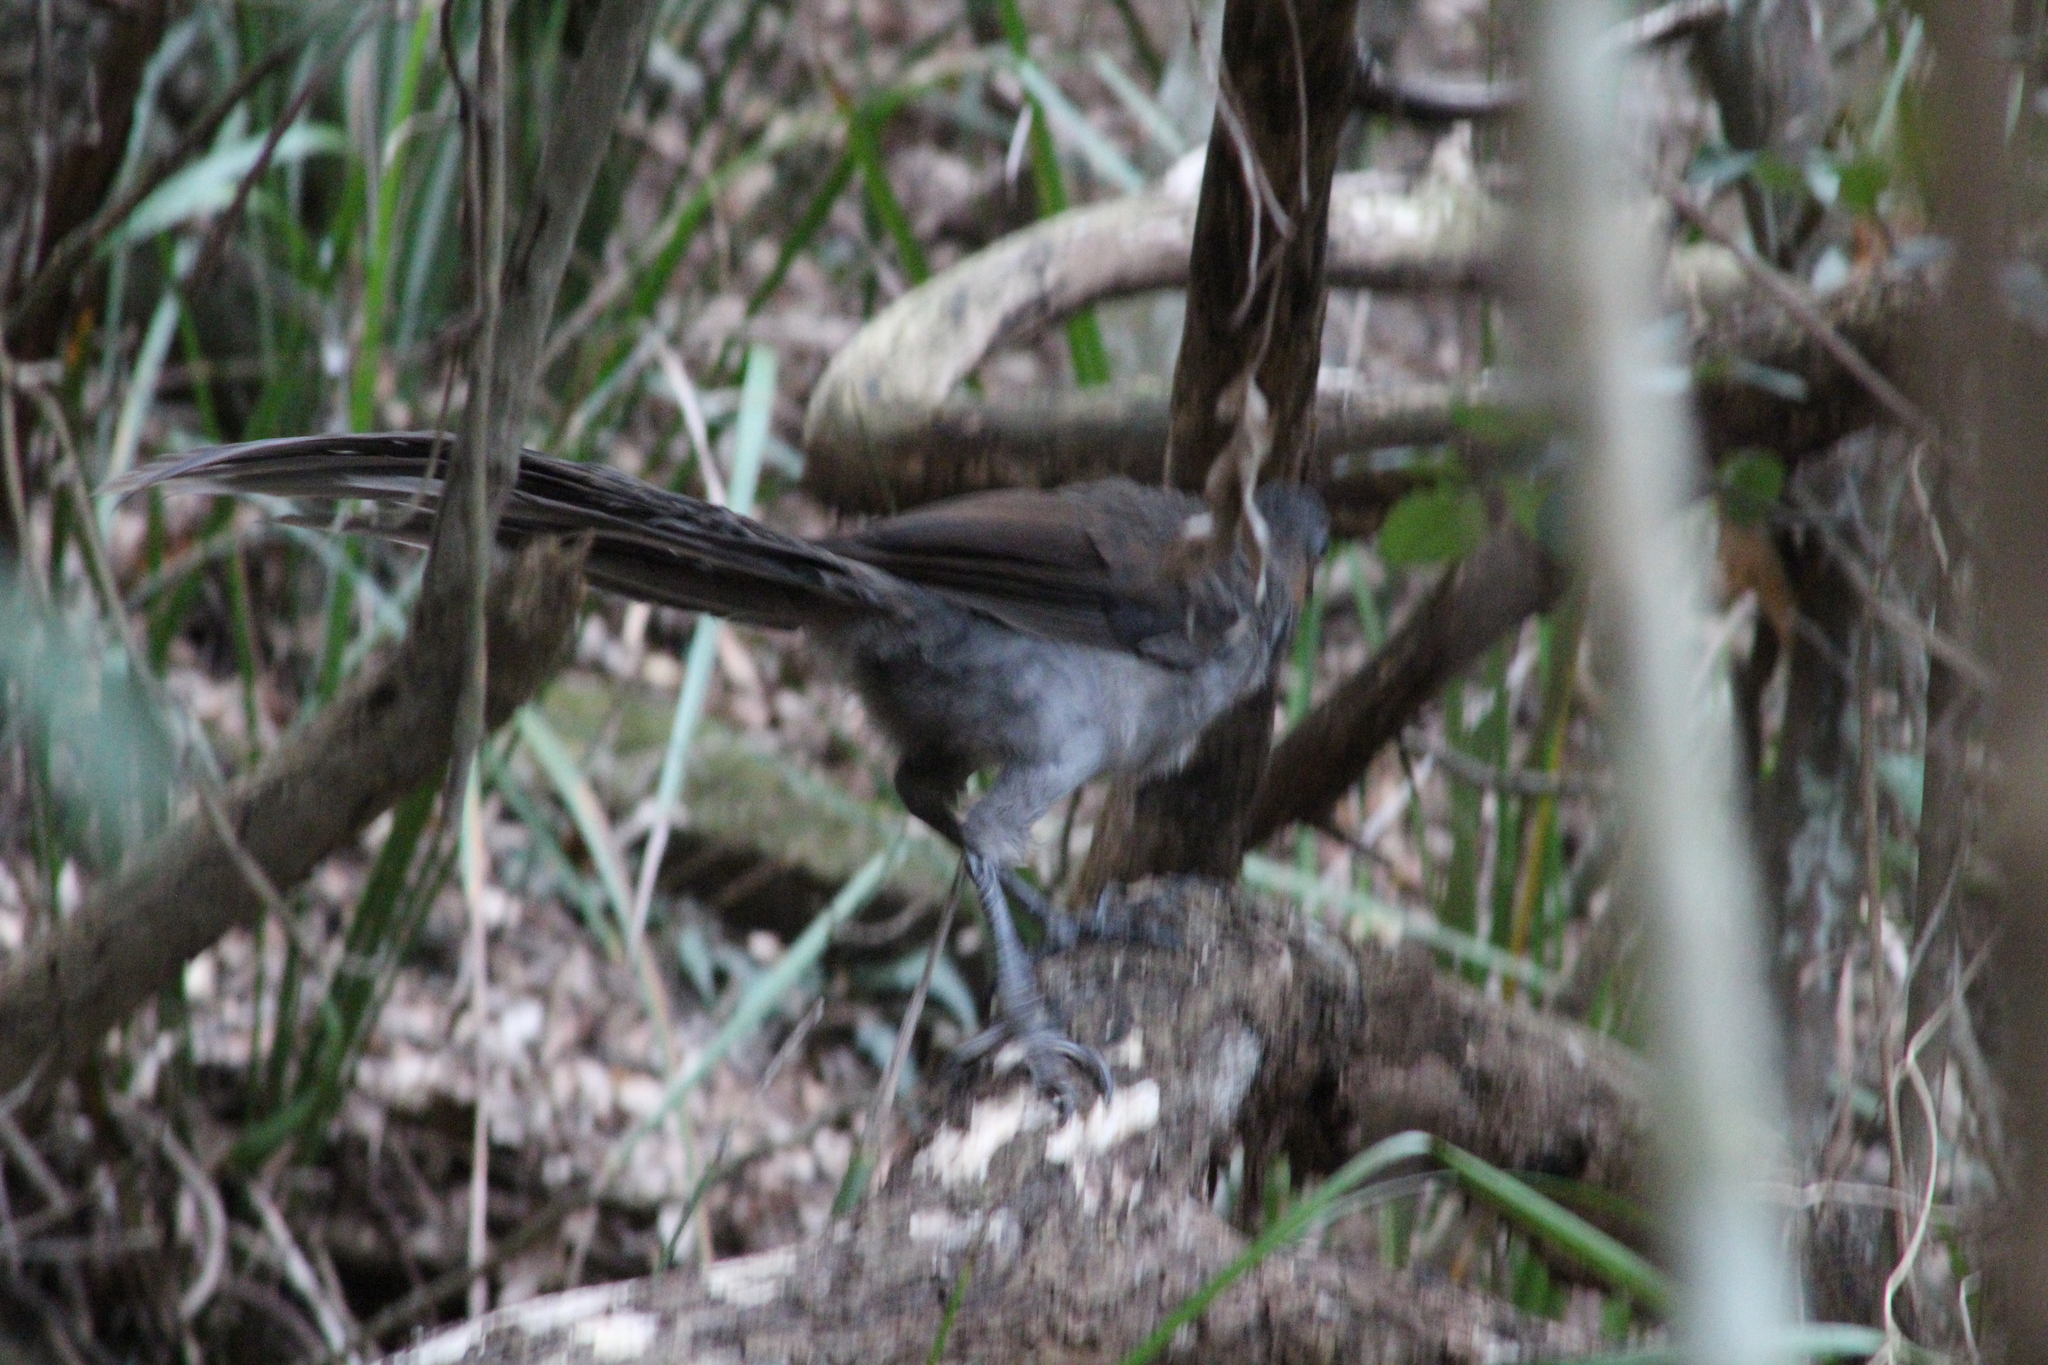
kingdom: Animalia
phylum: Chordata
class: Aves
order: Passeriformes
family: Menuridae
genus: Menura
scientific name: Menura novaehollandiae
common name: Superb lyrebird
